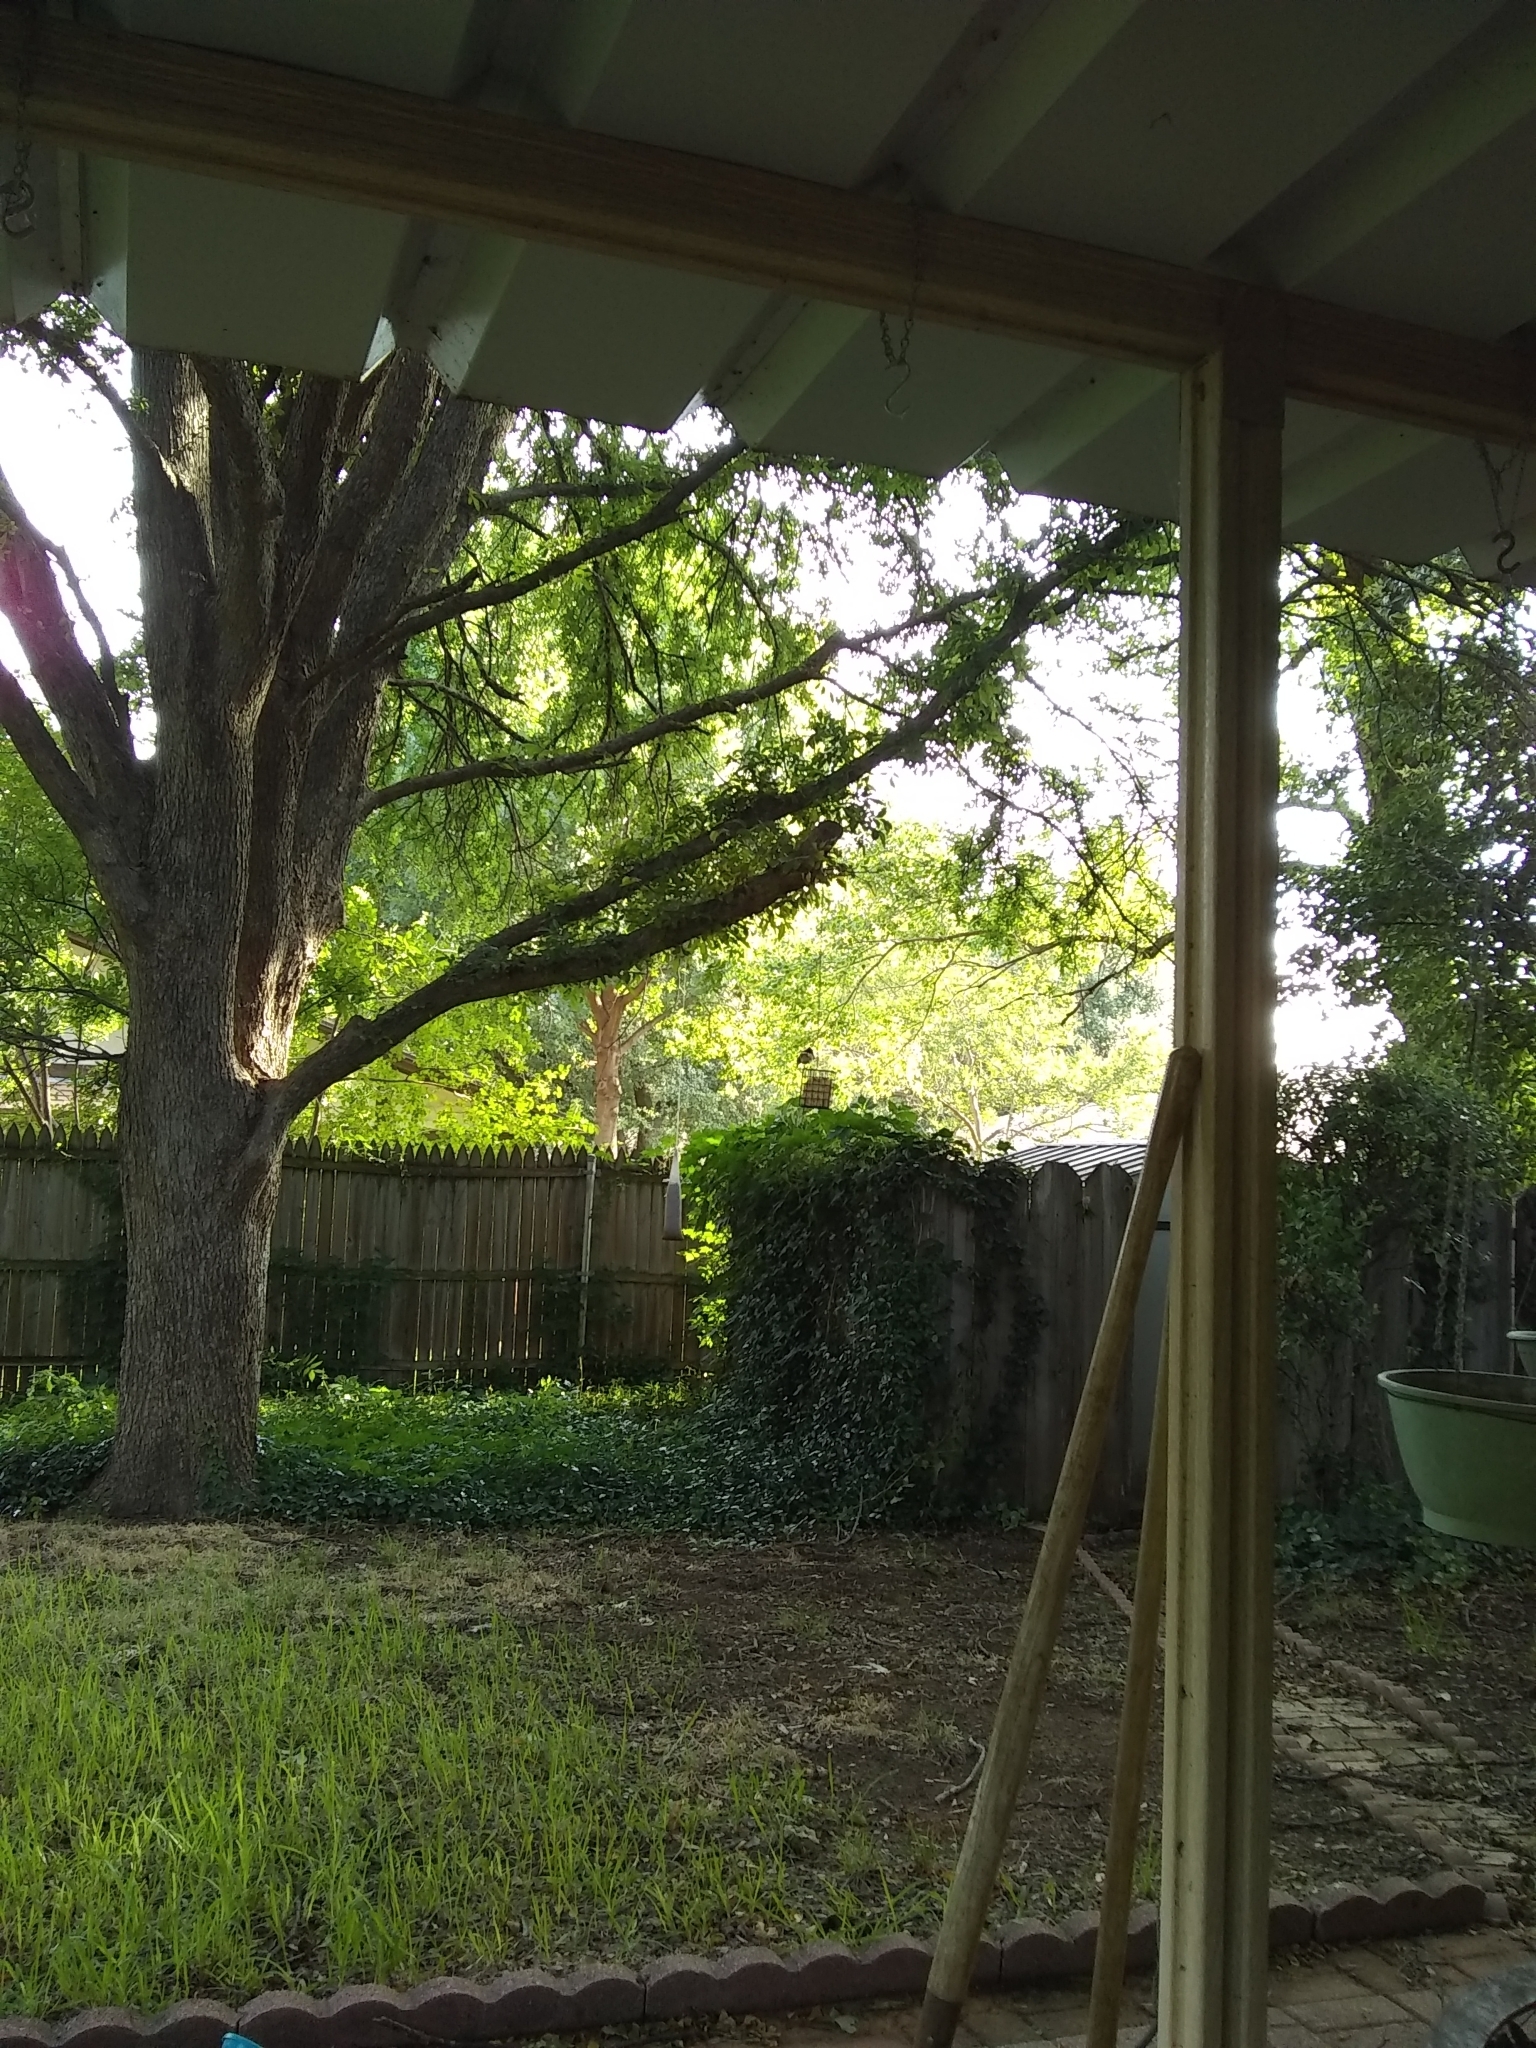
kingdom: Animalia
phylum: Chordata
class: Aves
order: Passeriformes
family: Corvidae
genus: Cyanocitta
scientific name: Cyanocitta cristata
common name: Blue jay
